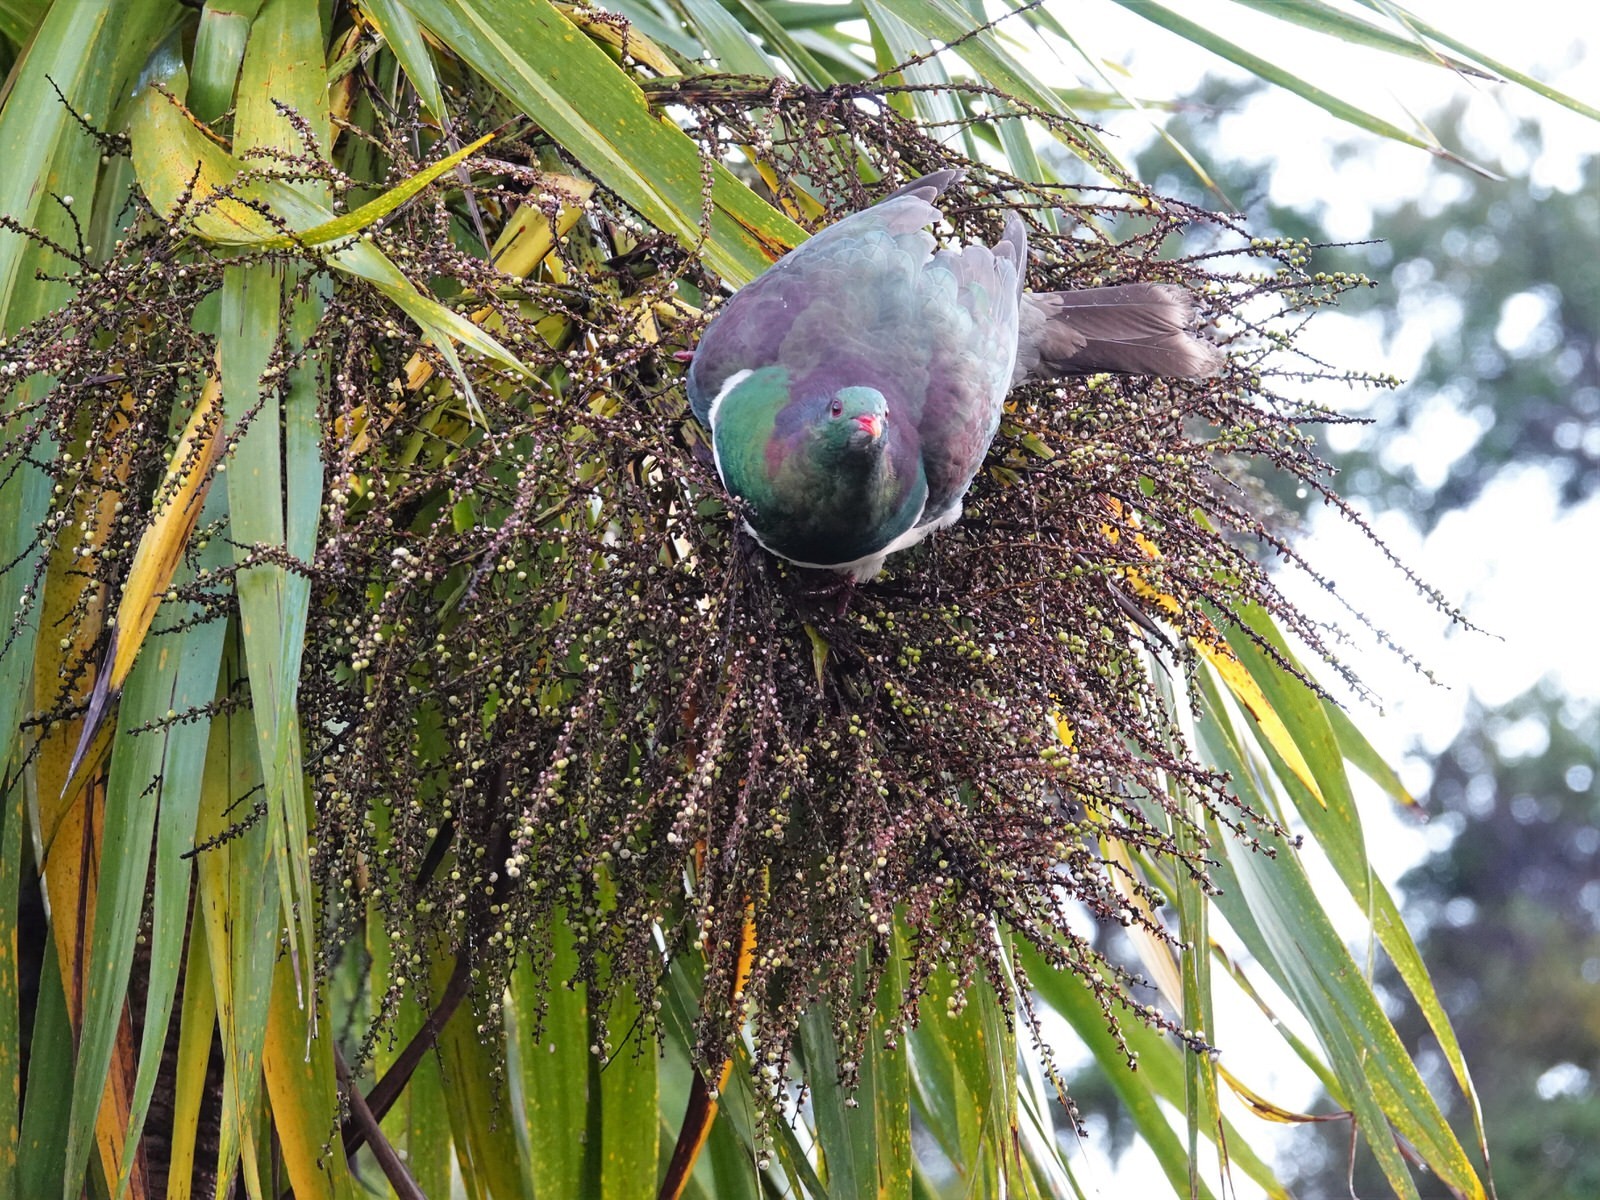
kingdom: Animalia
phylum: Chordata
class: Aves
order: Columbiformes
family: Columbidae
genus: Hemiphaga
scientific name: Hemiphaga novaeseelandiae
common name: New zealand pigeon
